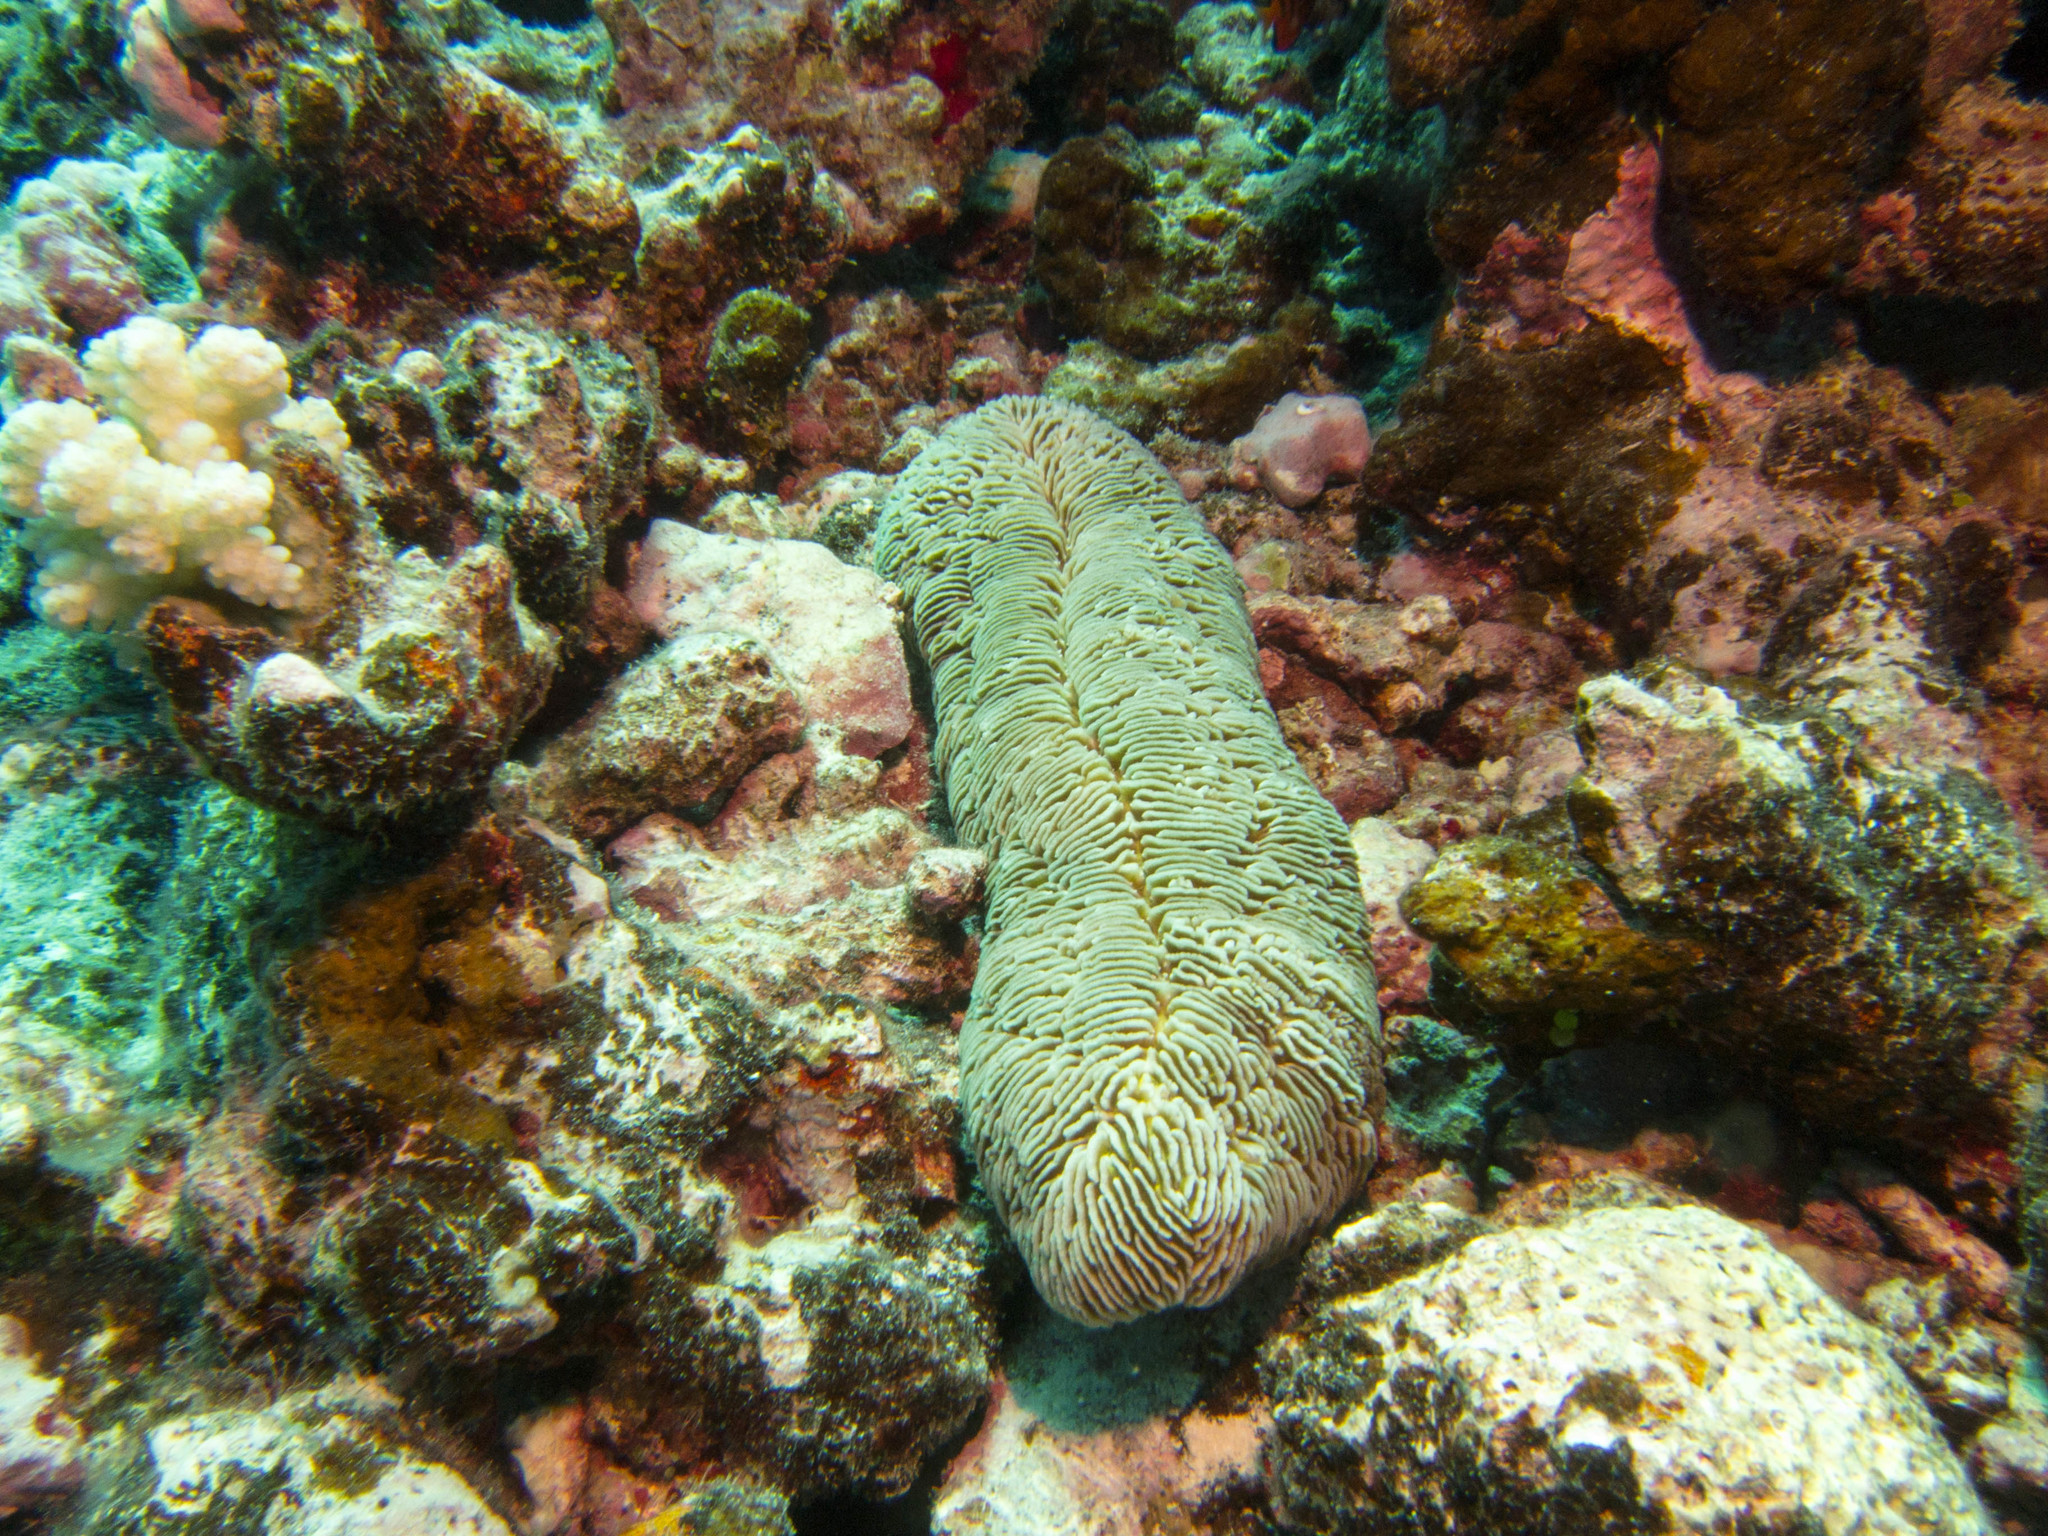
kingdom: Animalia
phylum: Cnidaria
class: Anthozoa
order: Scleractinia
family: Fungiidae
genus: Herpolitha
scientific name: Herpolitha limax
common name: Striate boomerang coral
